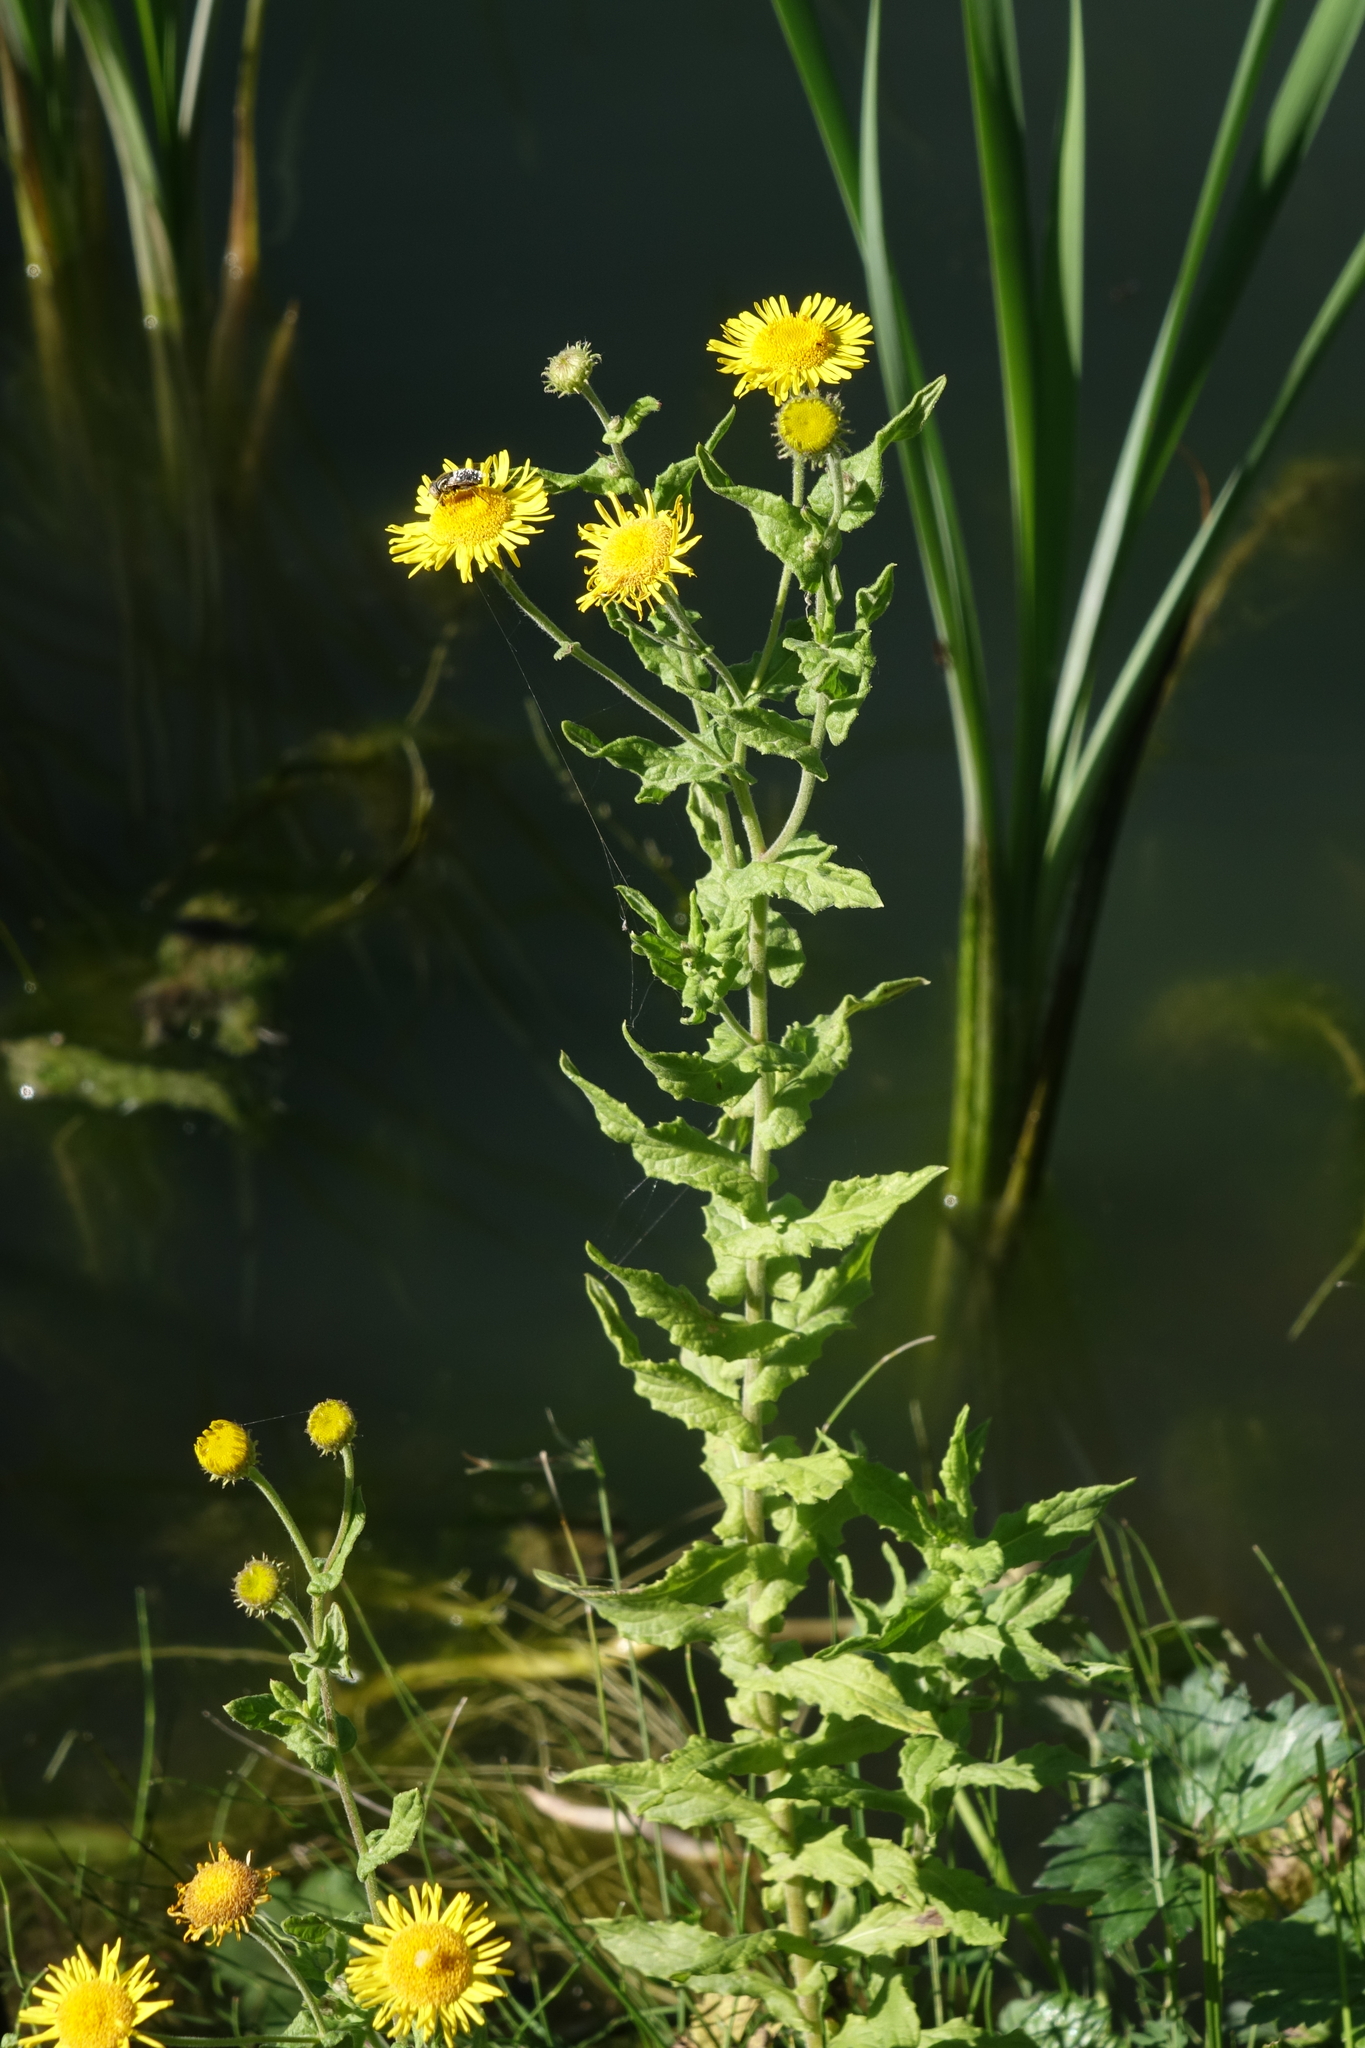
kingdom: Plantae
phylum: Tracheophyta
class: Magnoliopsida
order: Asterales
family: Asteraceae
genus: Pentanema
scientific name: Pentanema britannicum
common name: British elecampane
